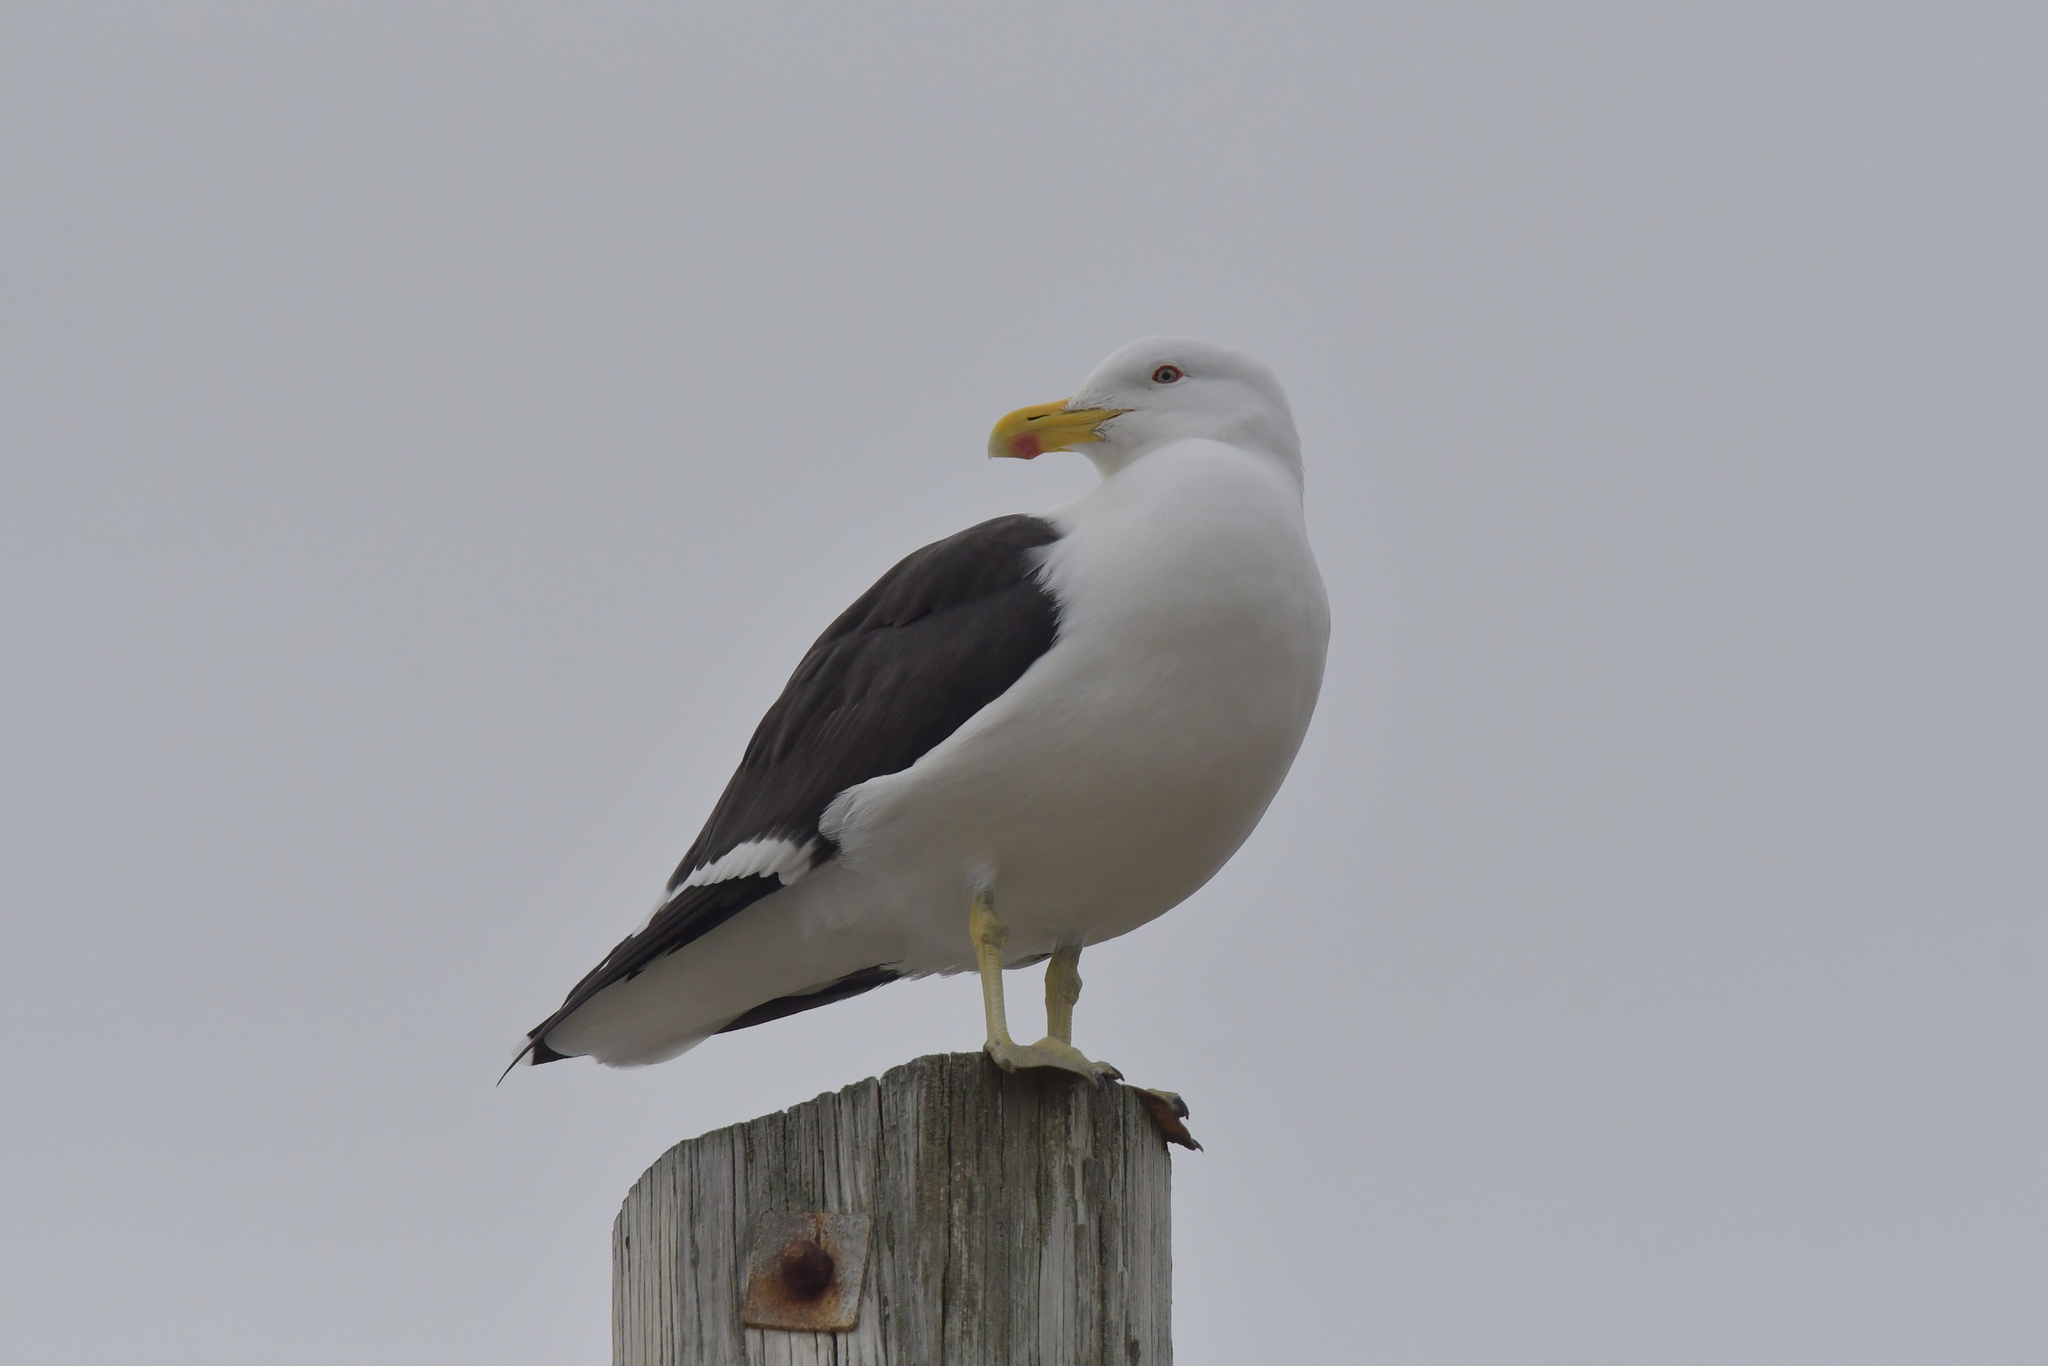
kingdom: Animalia
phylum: Chordata
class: Aves
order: Charadriiformes
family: Laridae
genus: Larus
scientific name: Larus dominicanus
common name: Kelp gull
